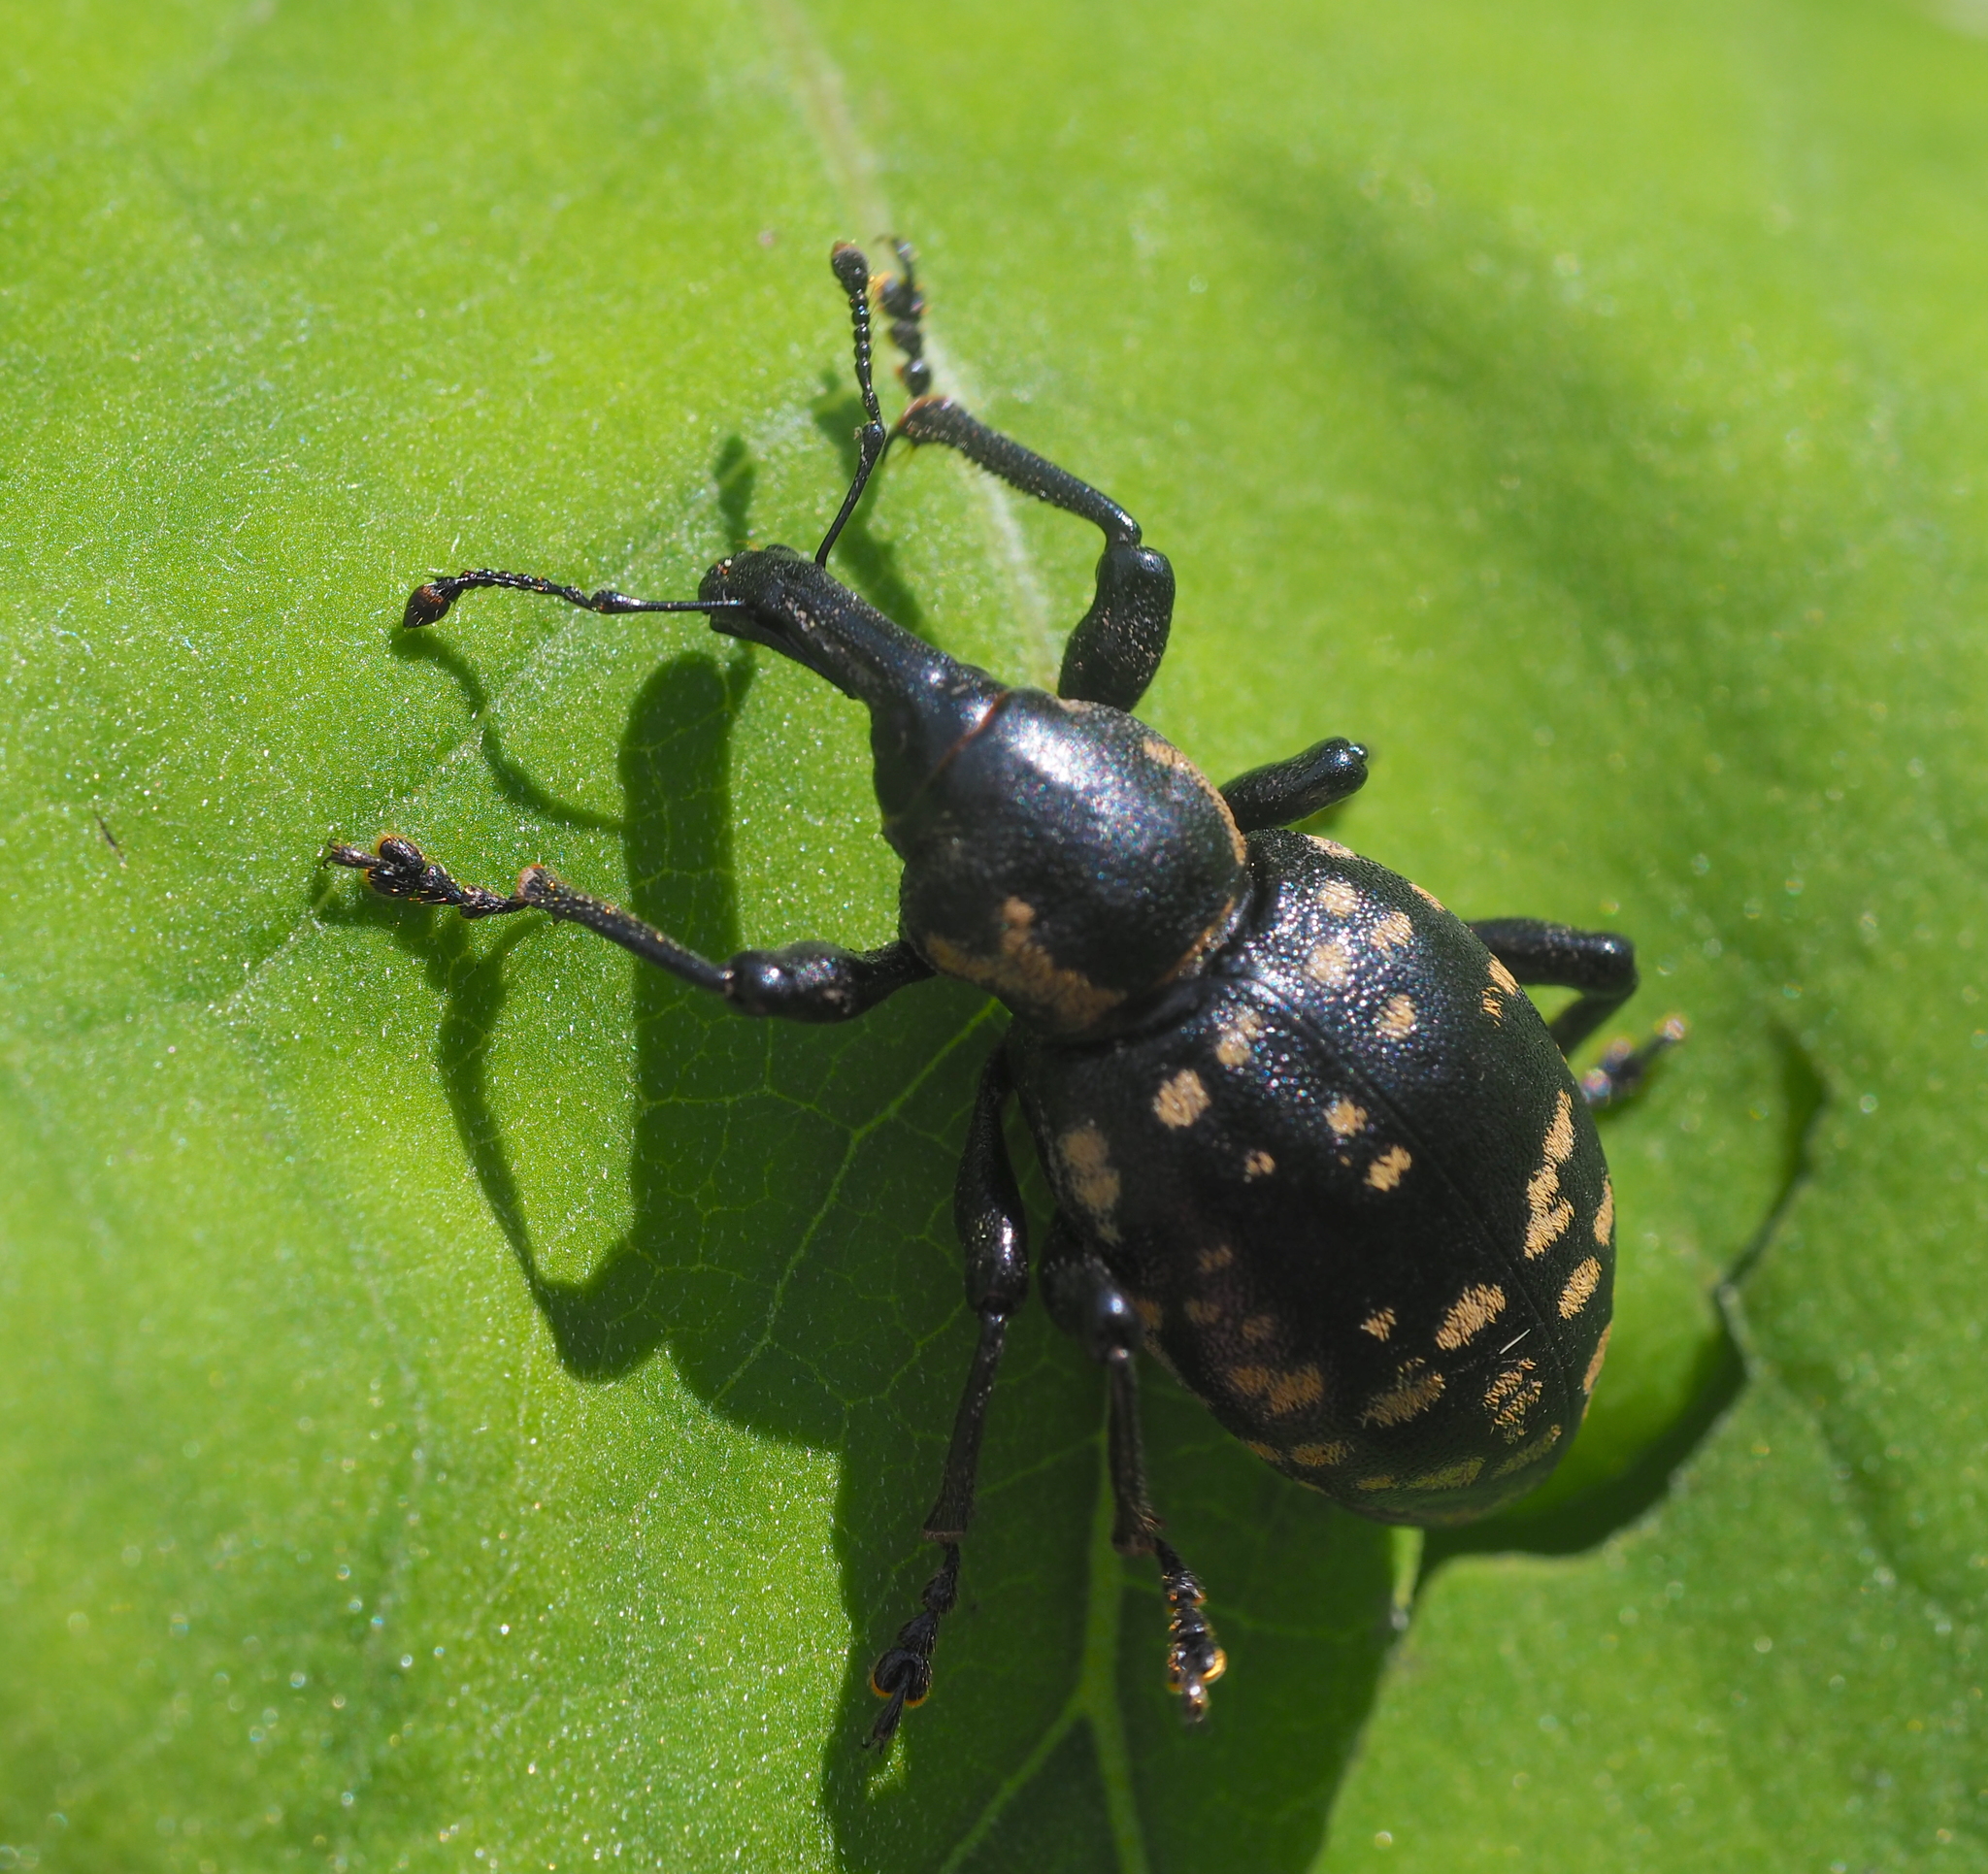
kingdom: Animalia
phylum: Arthropoda
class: Insecta
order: Coleoptera
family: Curculionidae
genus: Liparus
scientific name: Liparus glabrirostris
